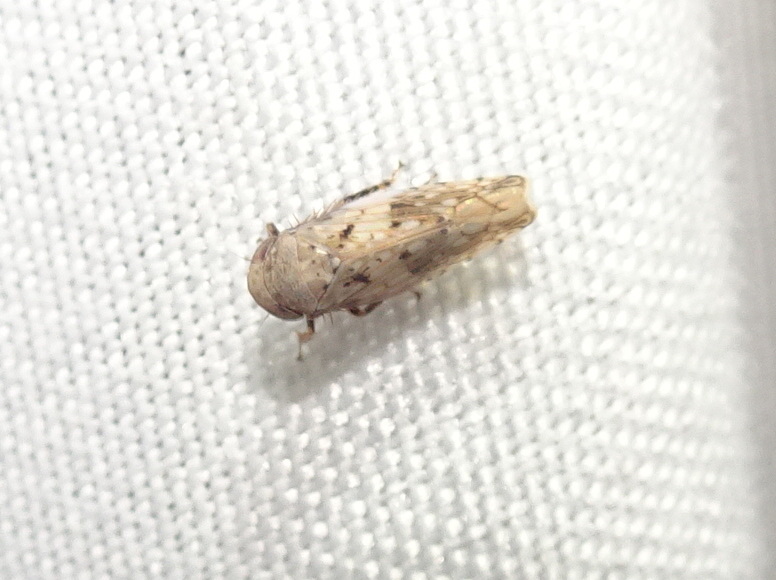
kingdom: Animalia
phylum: Arthropoda
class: Insecta
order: Hemiptera
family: Cicadellidae
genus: Menosoma
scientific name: Menosoma cinctum
